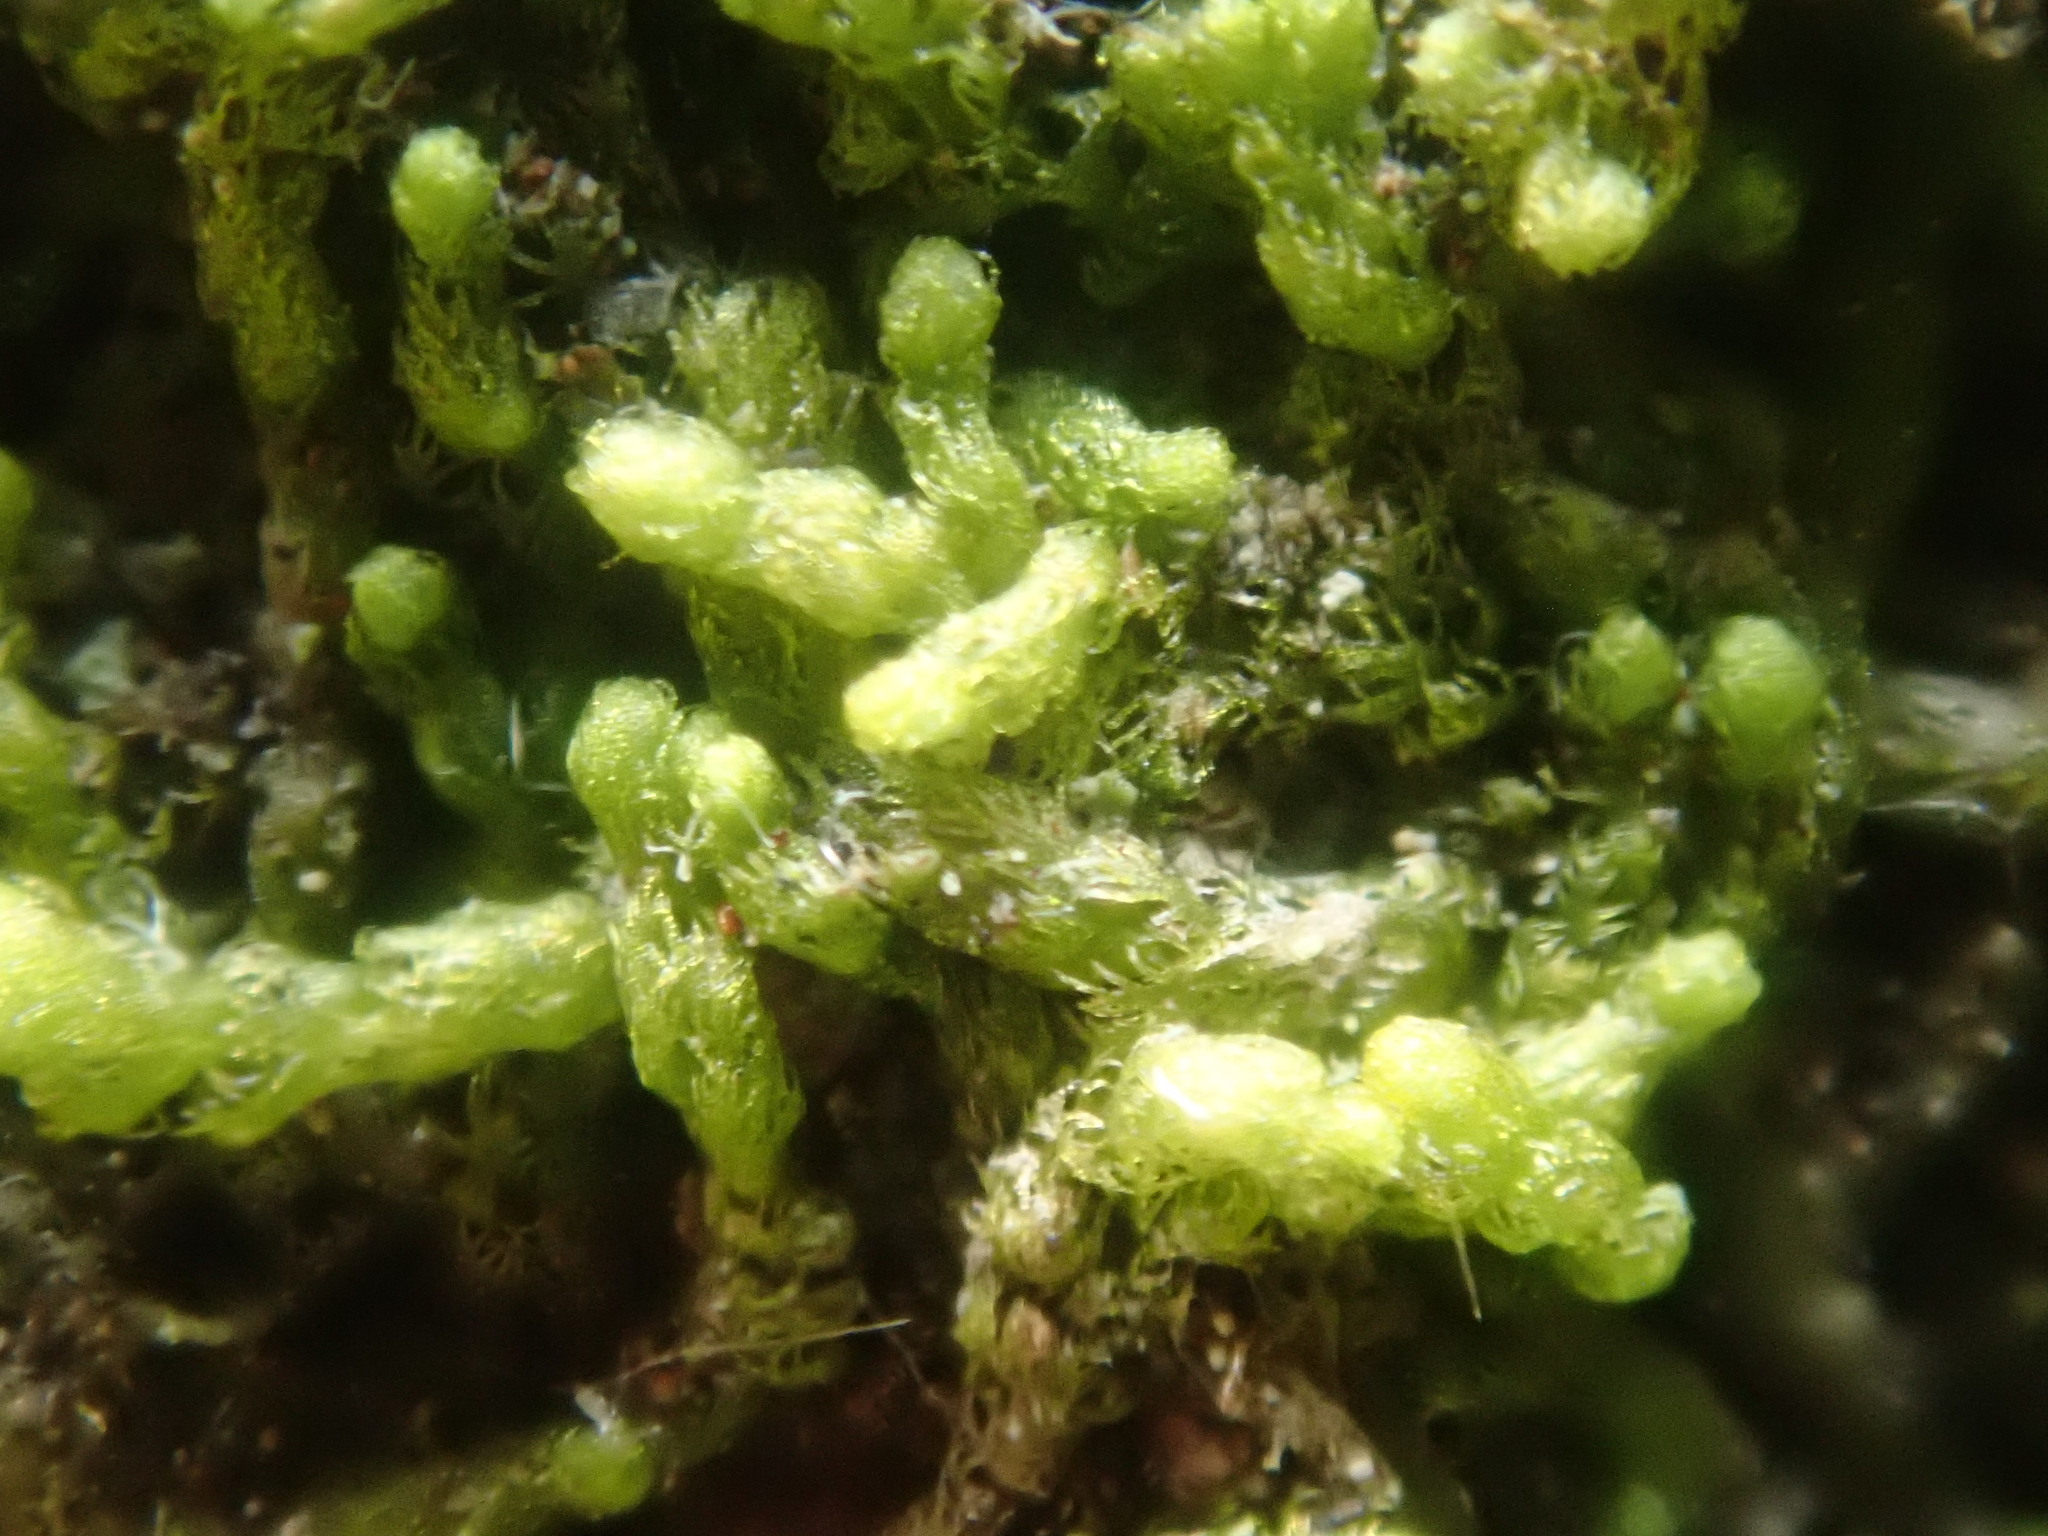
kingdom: Plantae
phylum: Marchantiophyta
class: Jungermanniopsida
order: Ptilidiales
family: Ptilidiaceae
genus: Ptilidium
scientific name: Ptilidium pulcherrimum
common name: Tree fringewort
